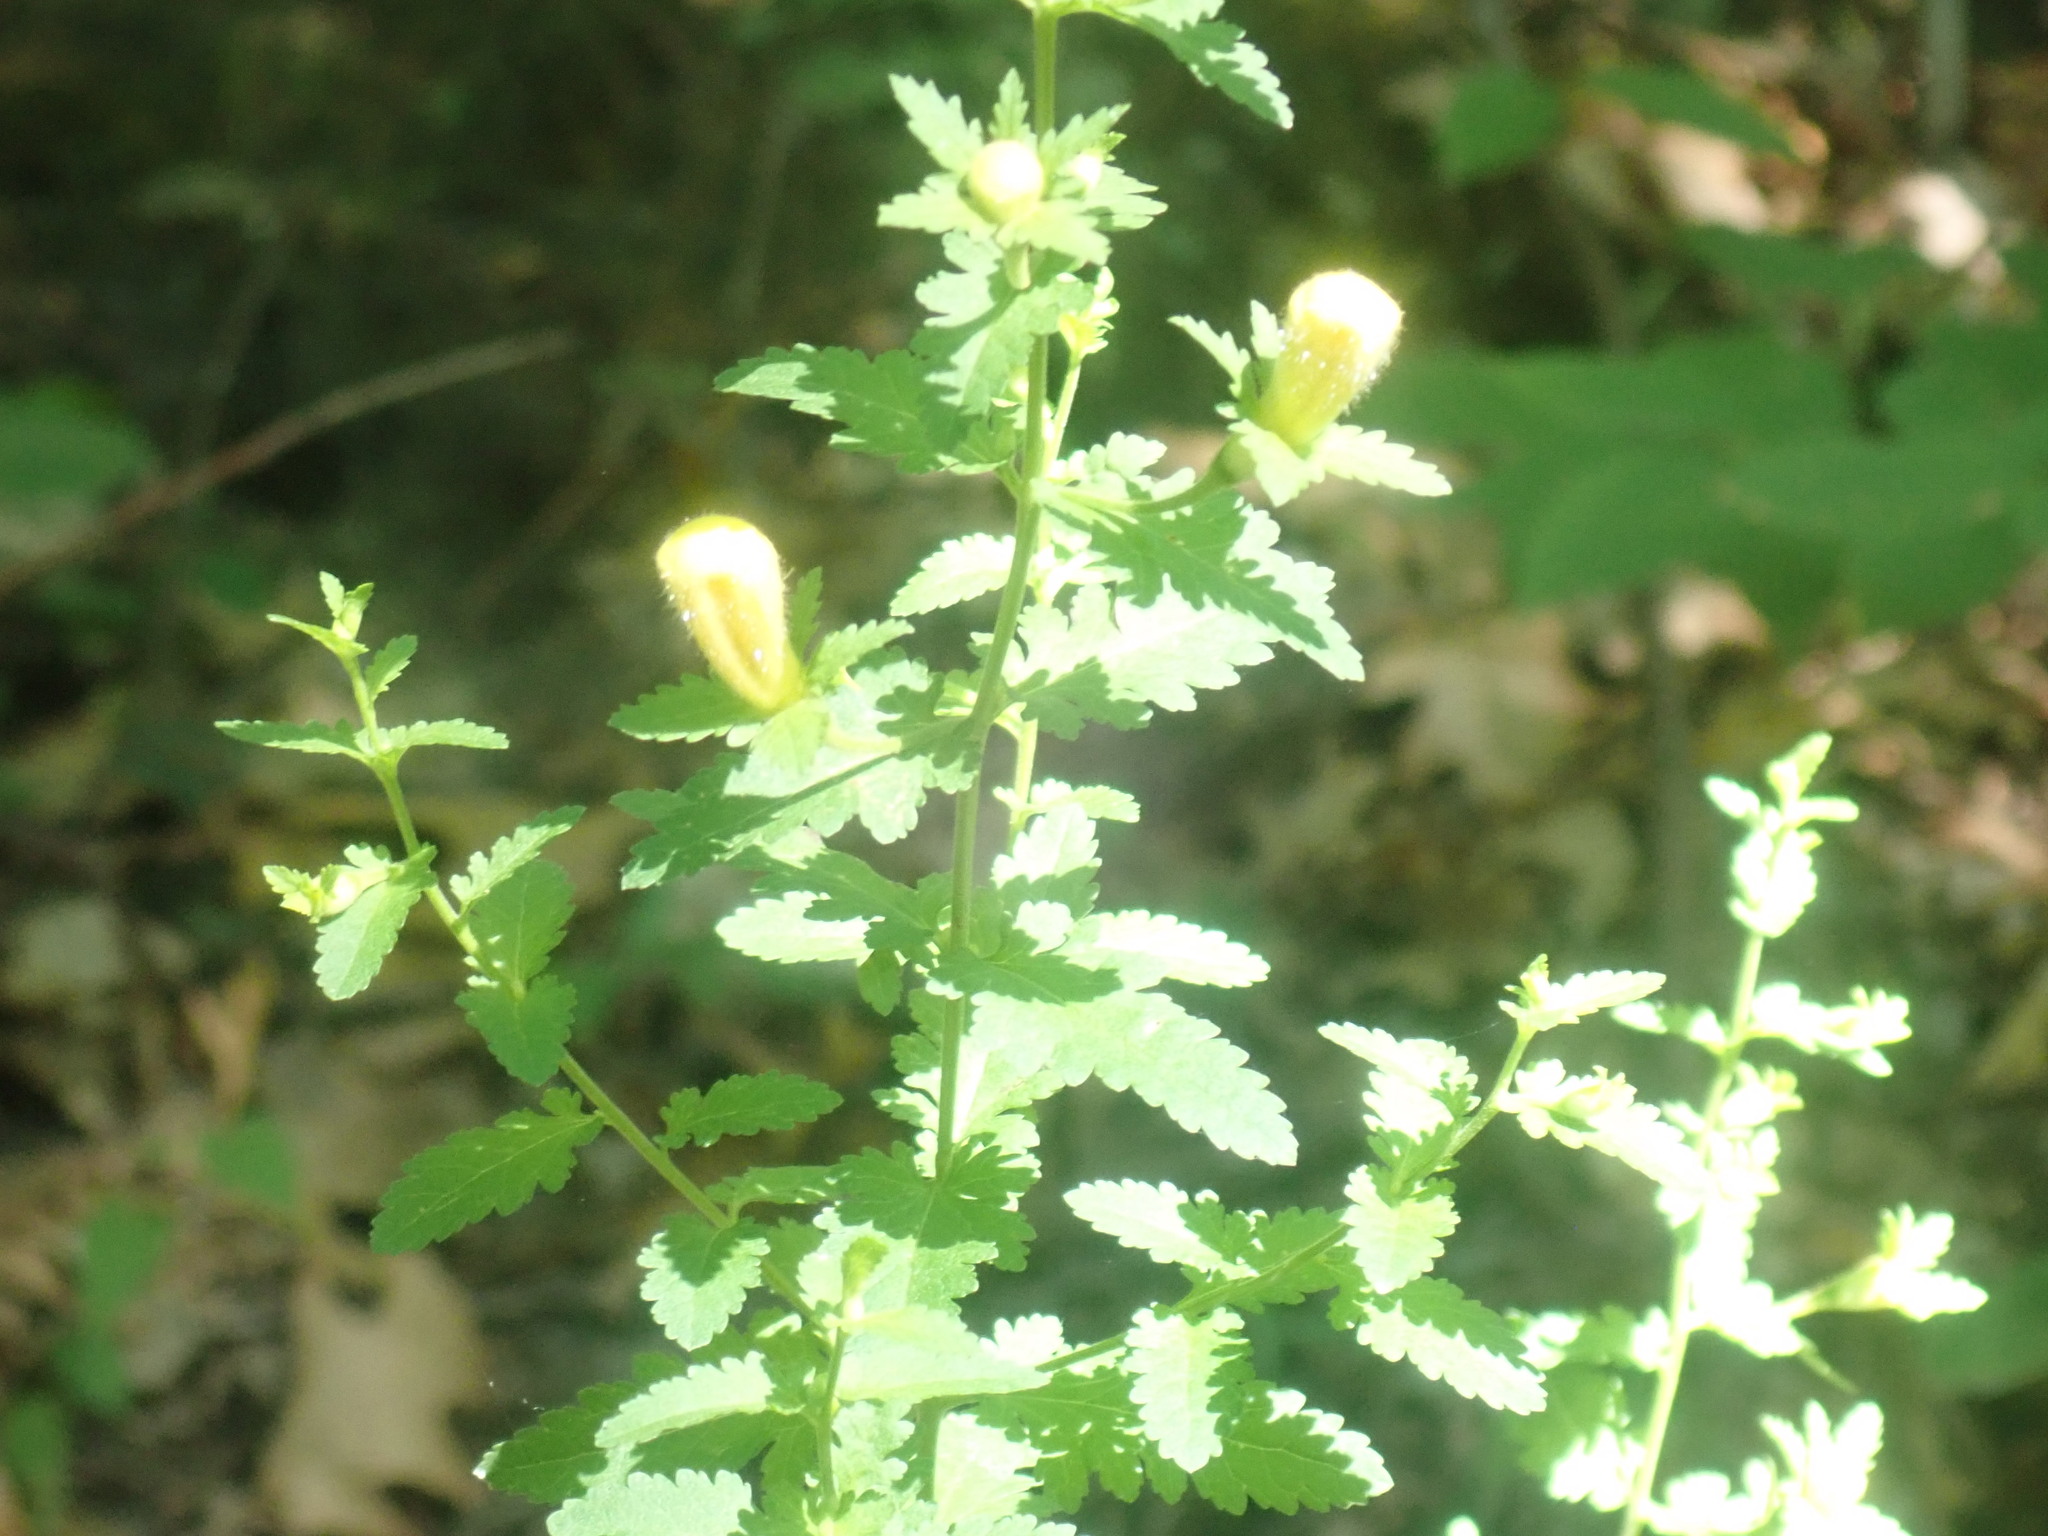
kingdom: Plantae
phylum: Tracheophyta
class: Magnoliopsida
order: Lamiales
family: Orobanchaceae
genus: Aureolaria
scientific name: Aureolaria pedicularia
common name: Annual false foxglove
